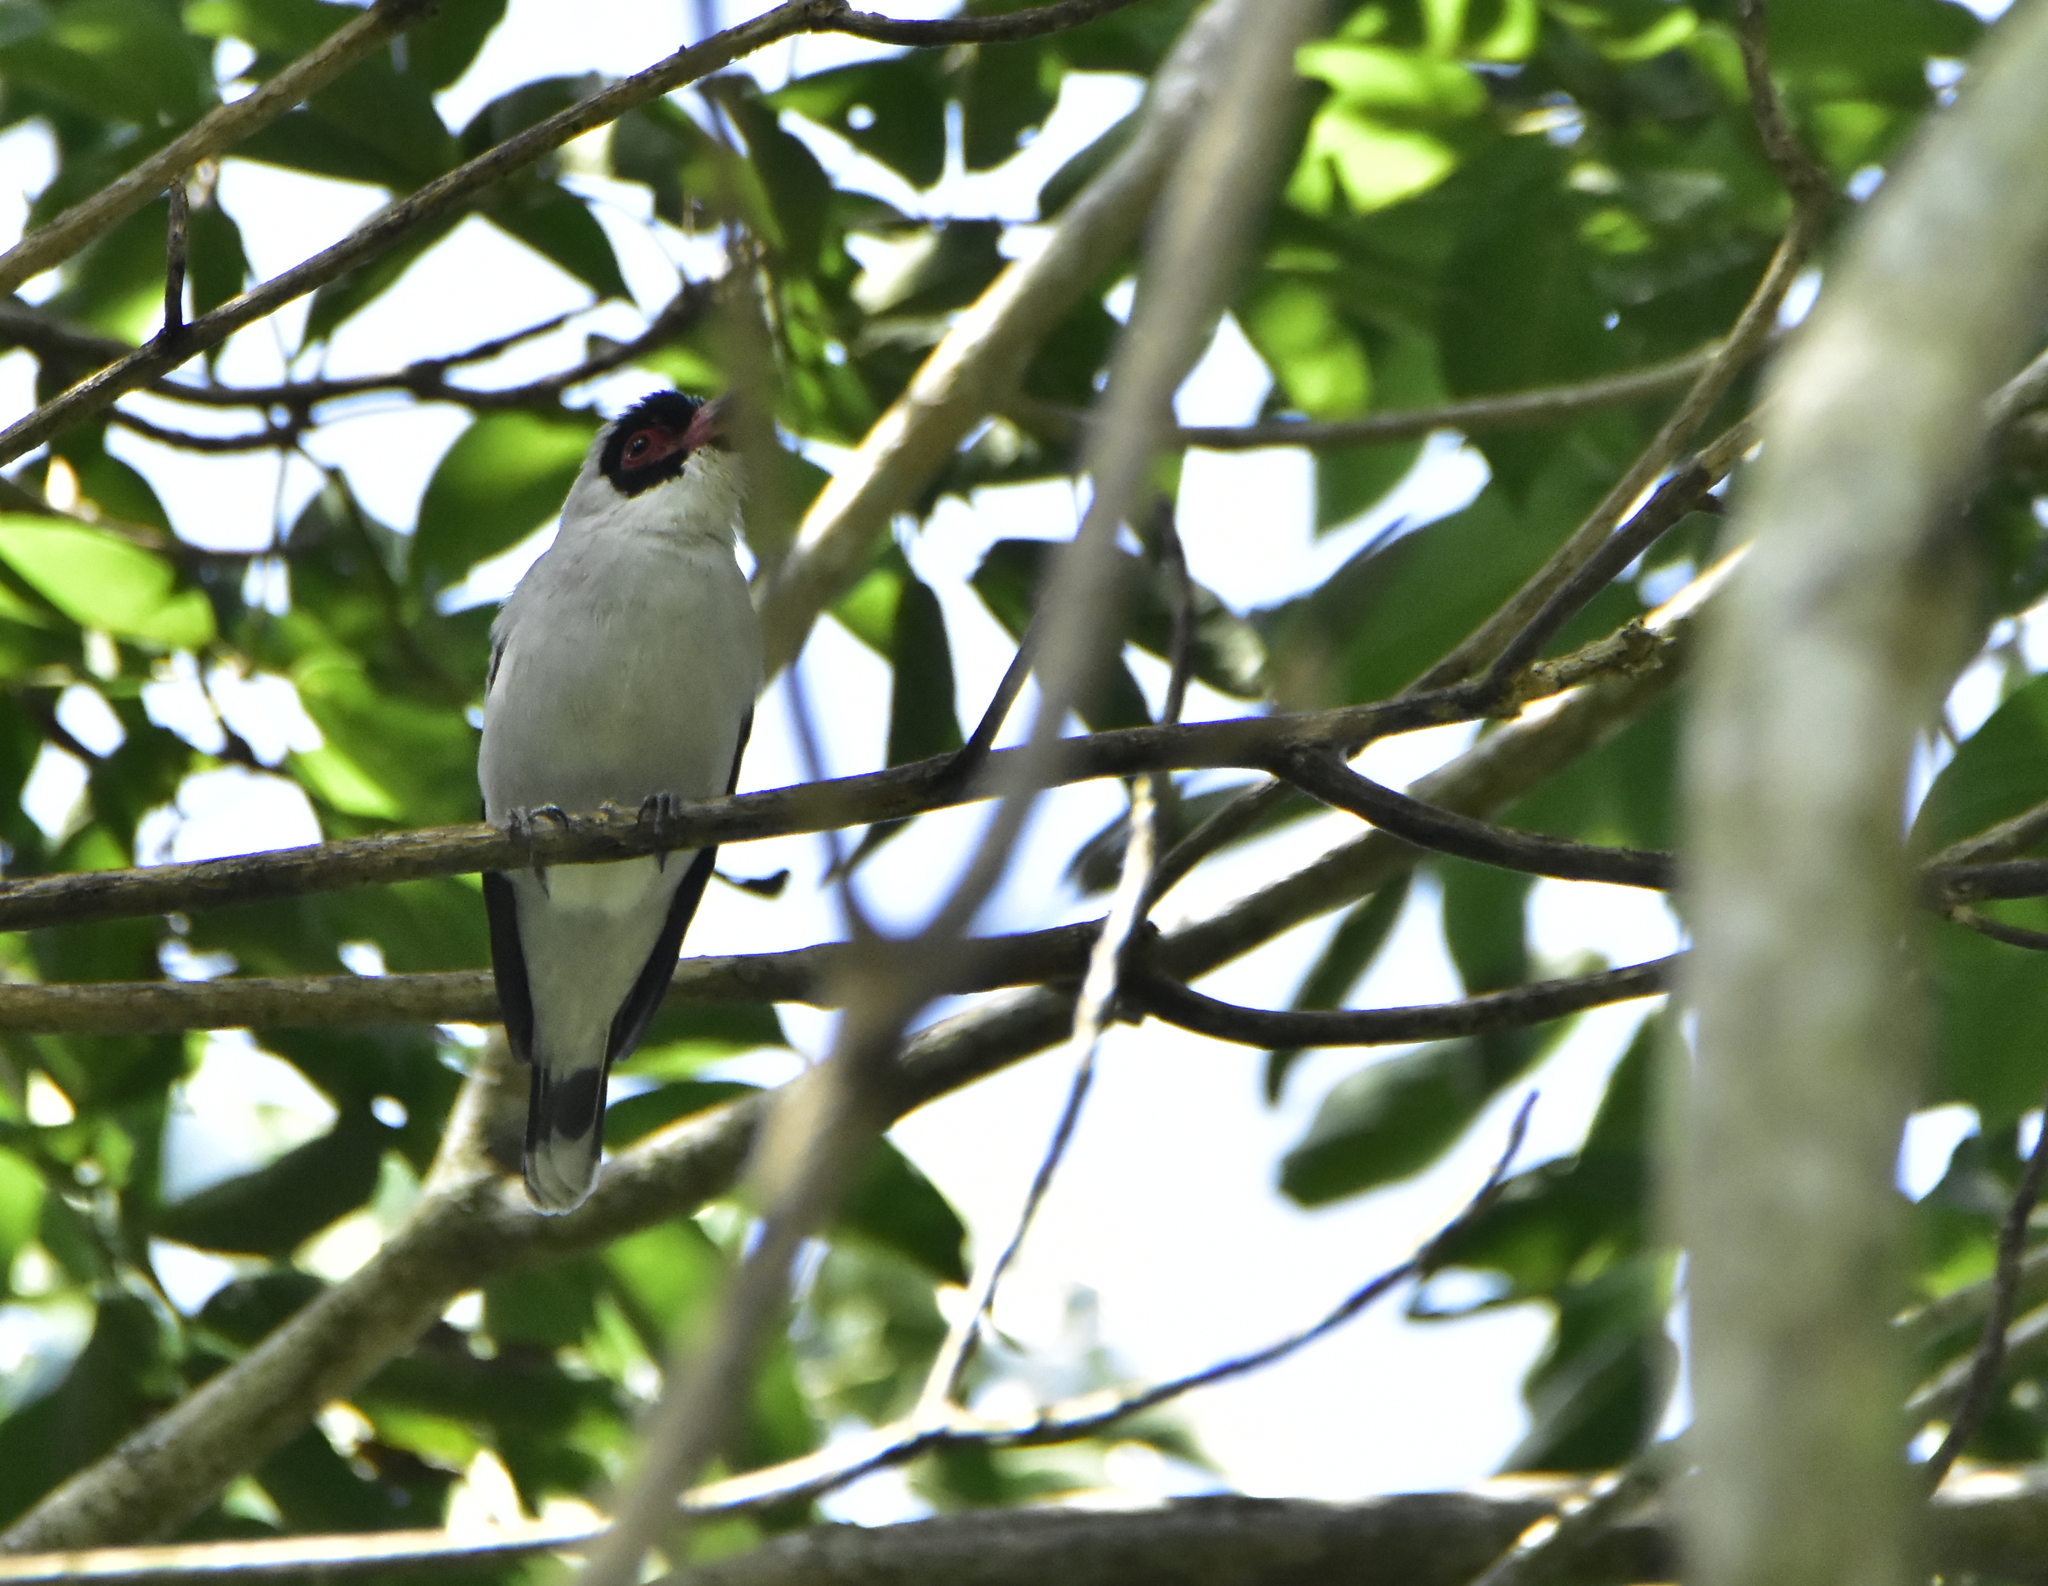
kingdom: Animalia
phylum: Chordata
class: Aves
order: Passeriformes
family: Cotingidae
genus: Tityra
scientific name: Tityra semifasciata
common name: Masked tityra
